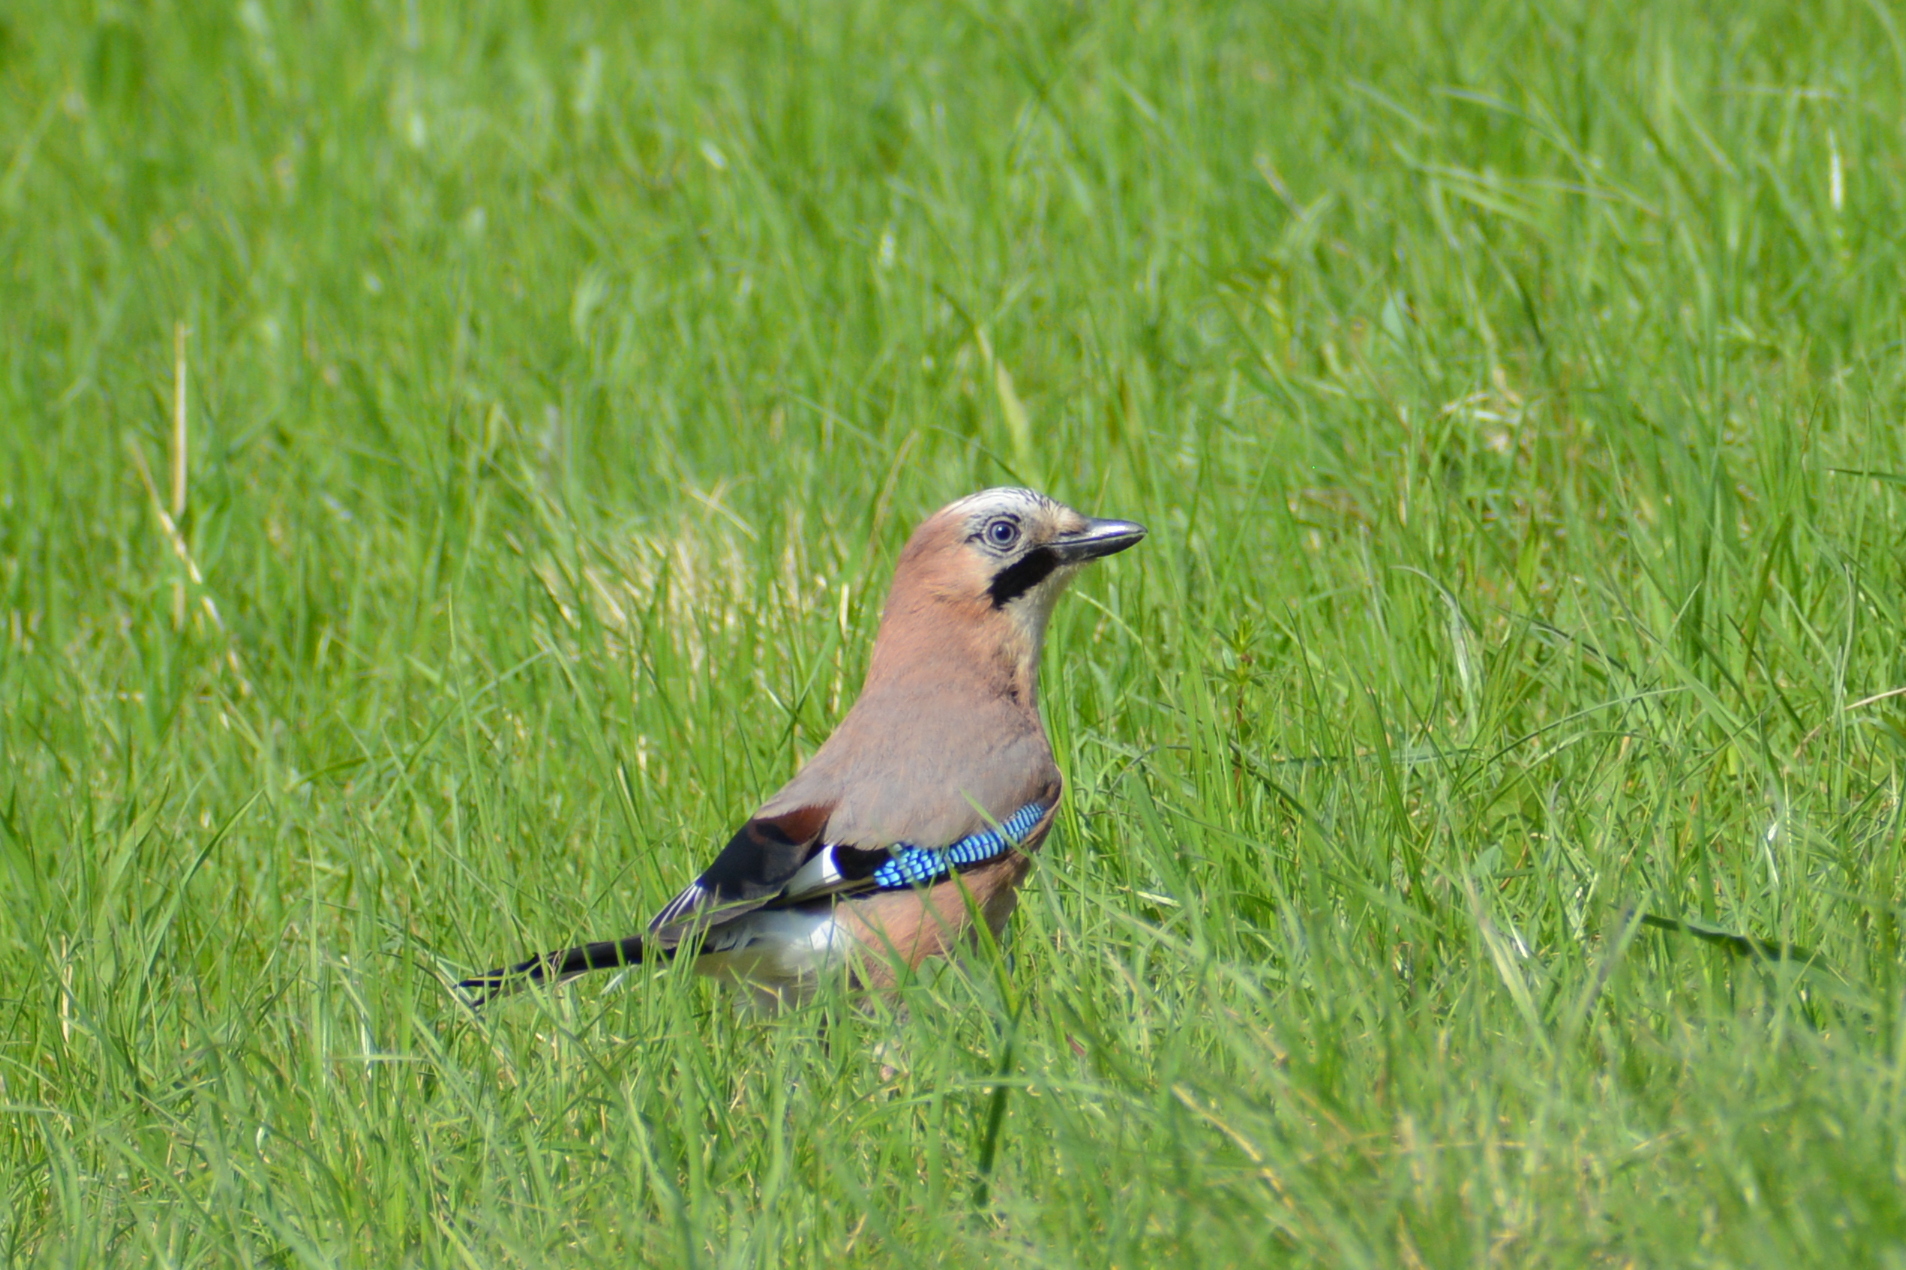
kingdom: Animalia
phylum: Chordata
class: Aves
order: Passeriformes
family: Corvidae
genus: Garrulus
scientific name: Garrulus glandarius
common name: Eurasian jay
